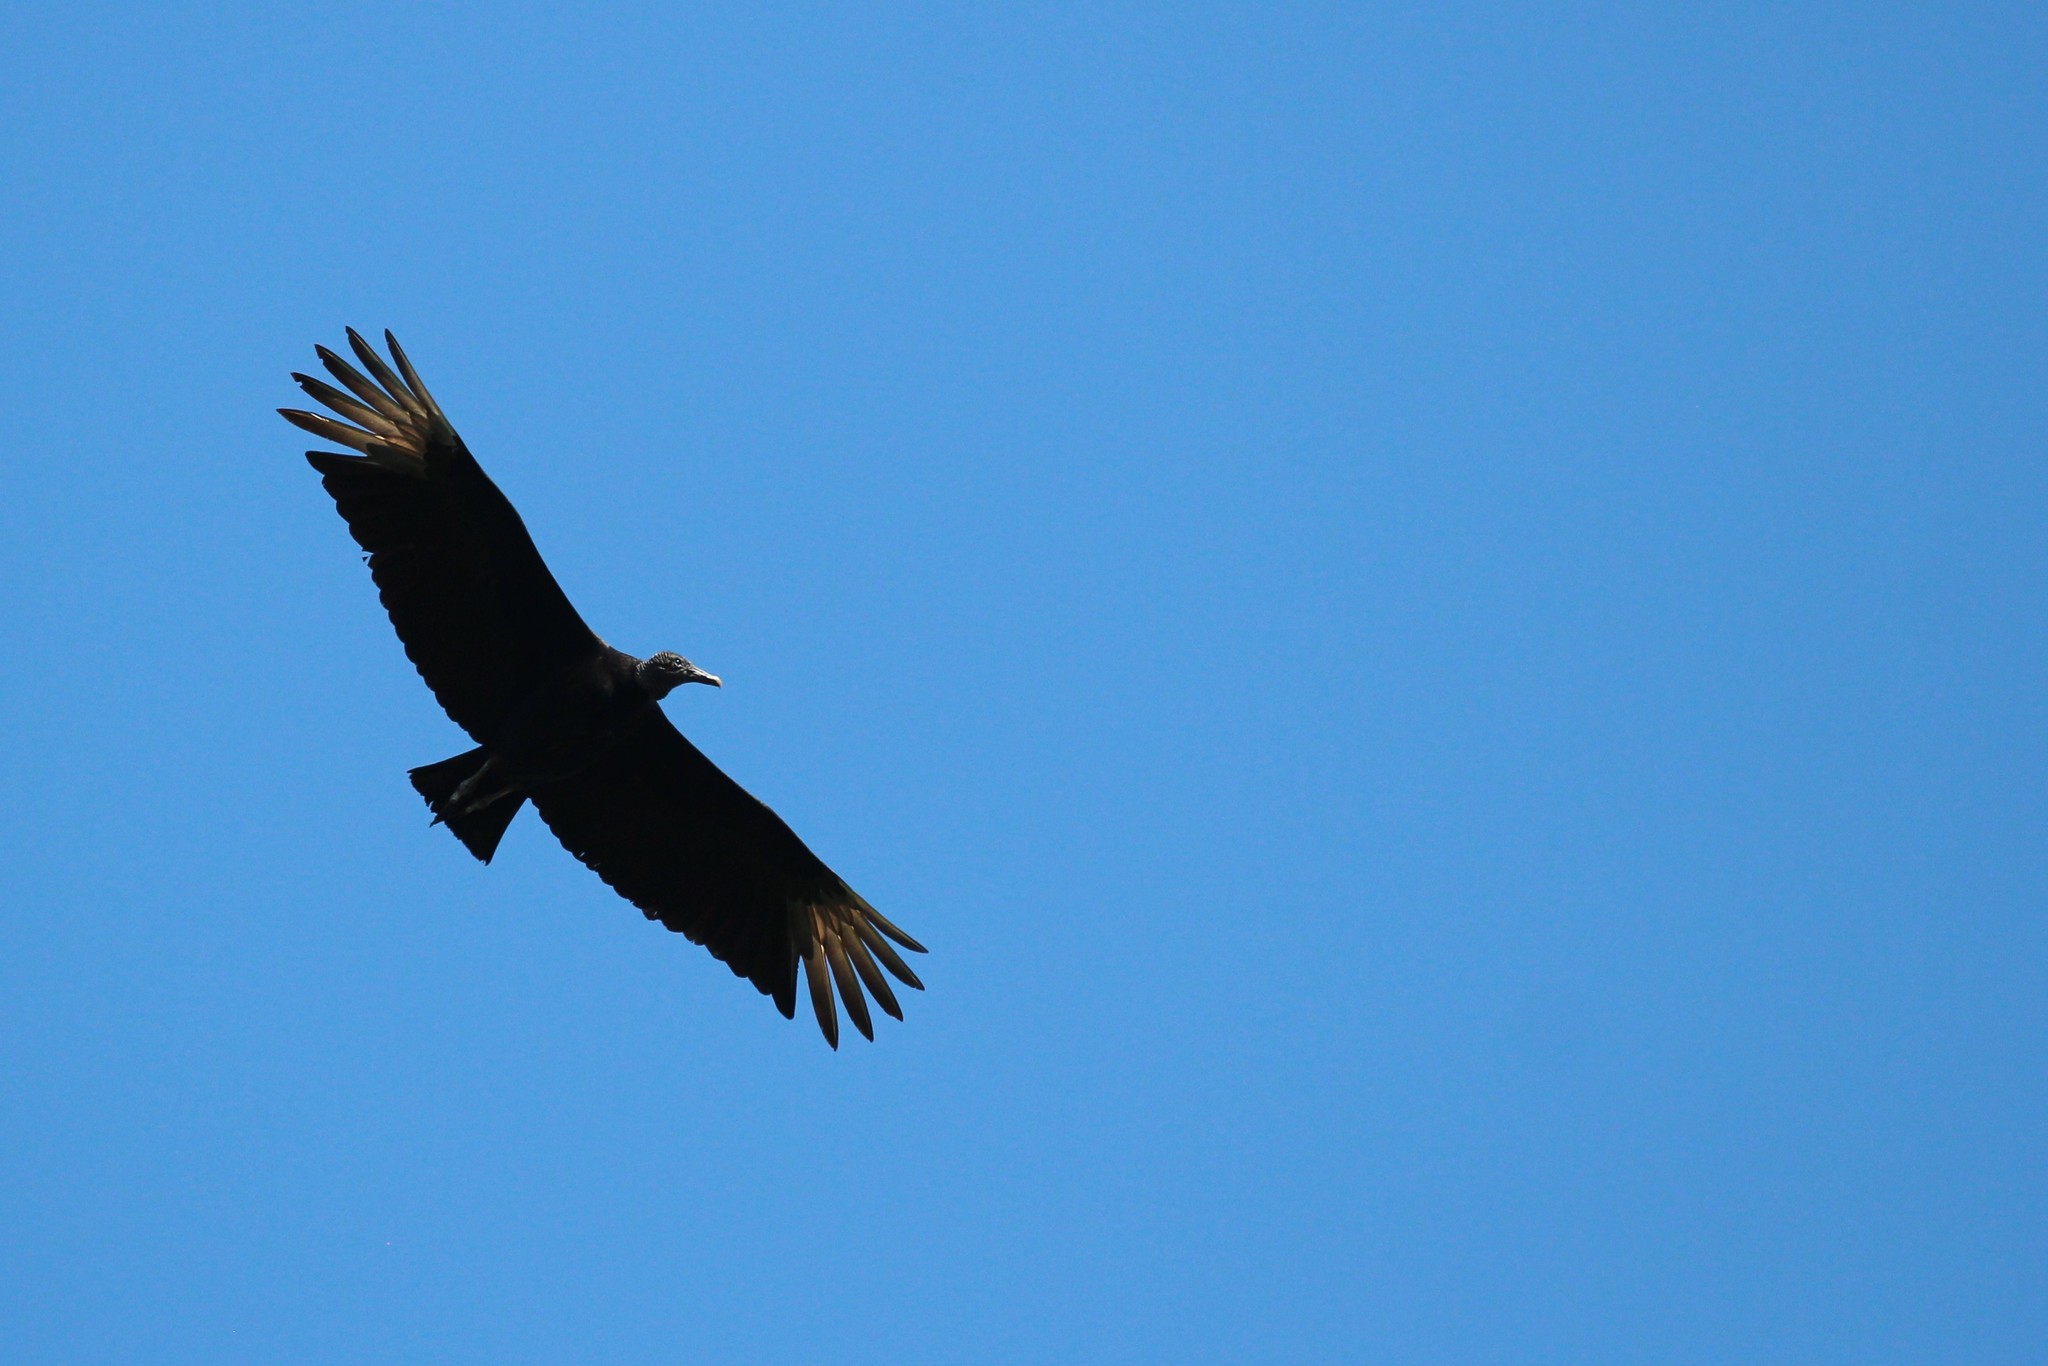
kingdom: Animalia
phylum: Chordata
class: Aves
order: Accipitriformes
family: Cathartidae
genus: Coragyps
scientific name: Coragyps atratus
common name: Black vulture
